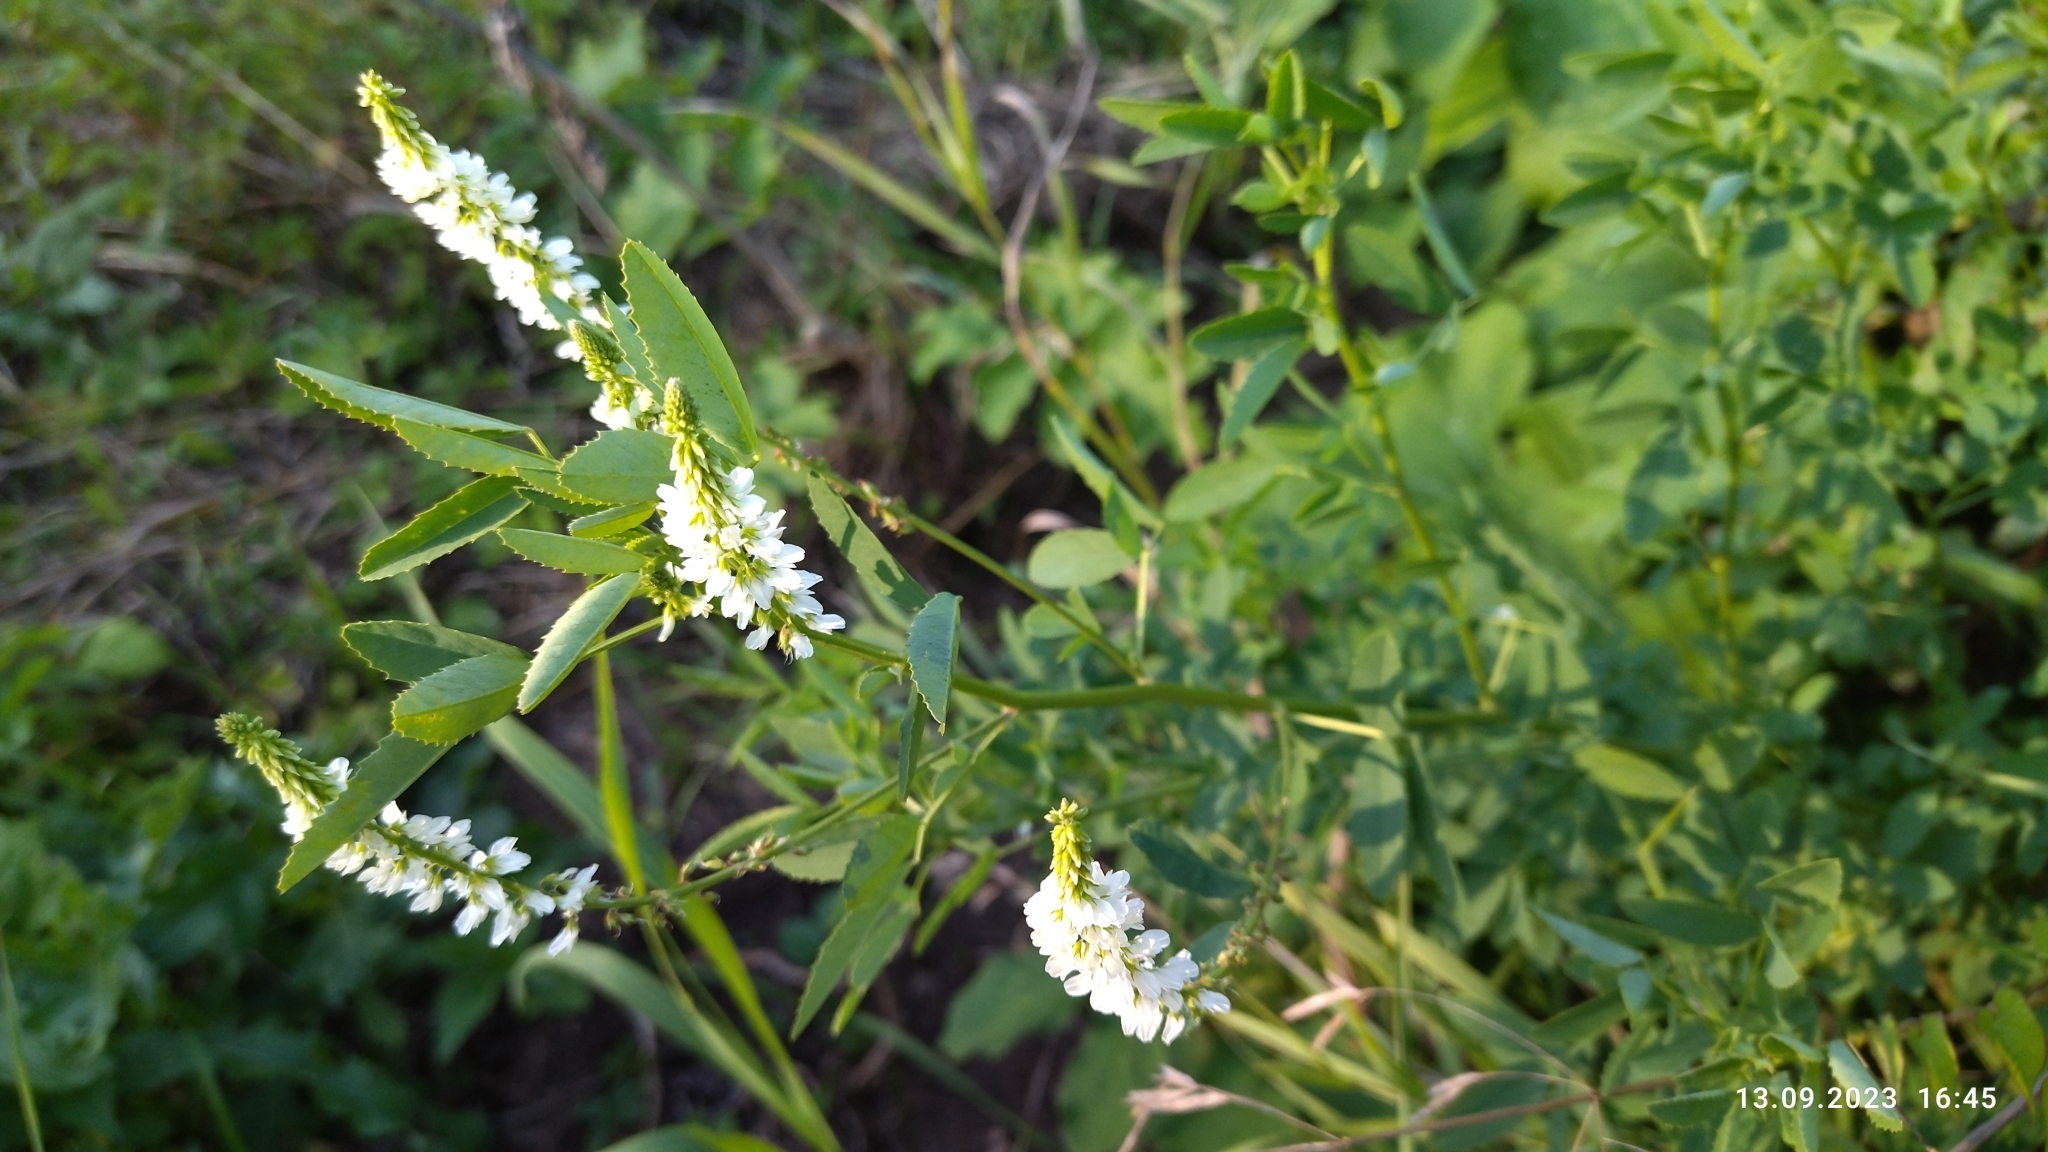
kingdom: Plantae
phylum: Tracheophyta
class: Magnoliopsida
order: Fabales
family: Fabaceae
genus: Melilotus
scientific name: Melilotus albus
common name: White melilot
